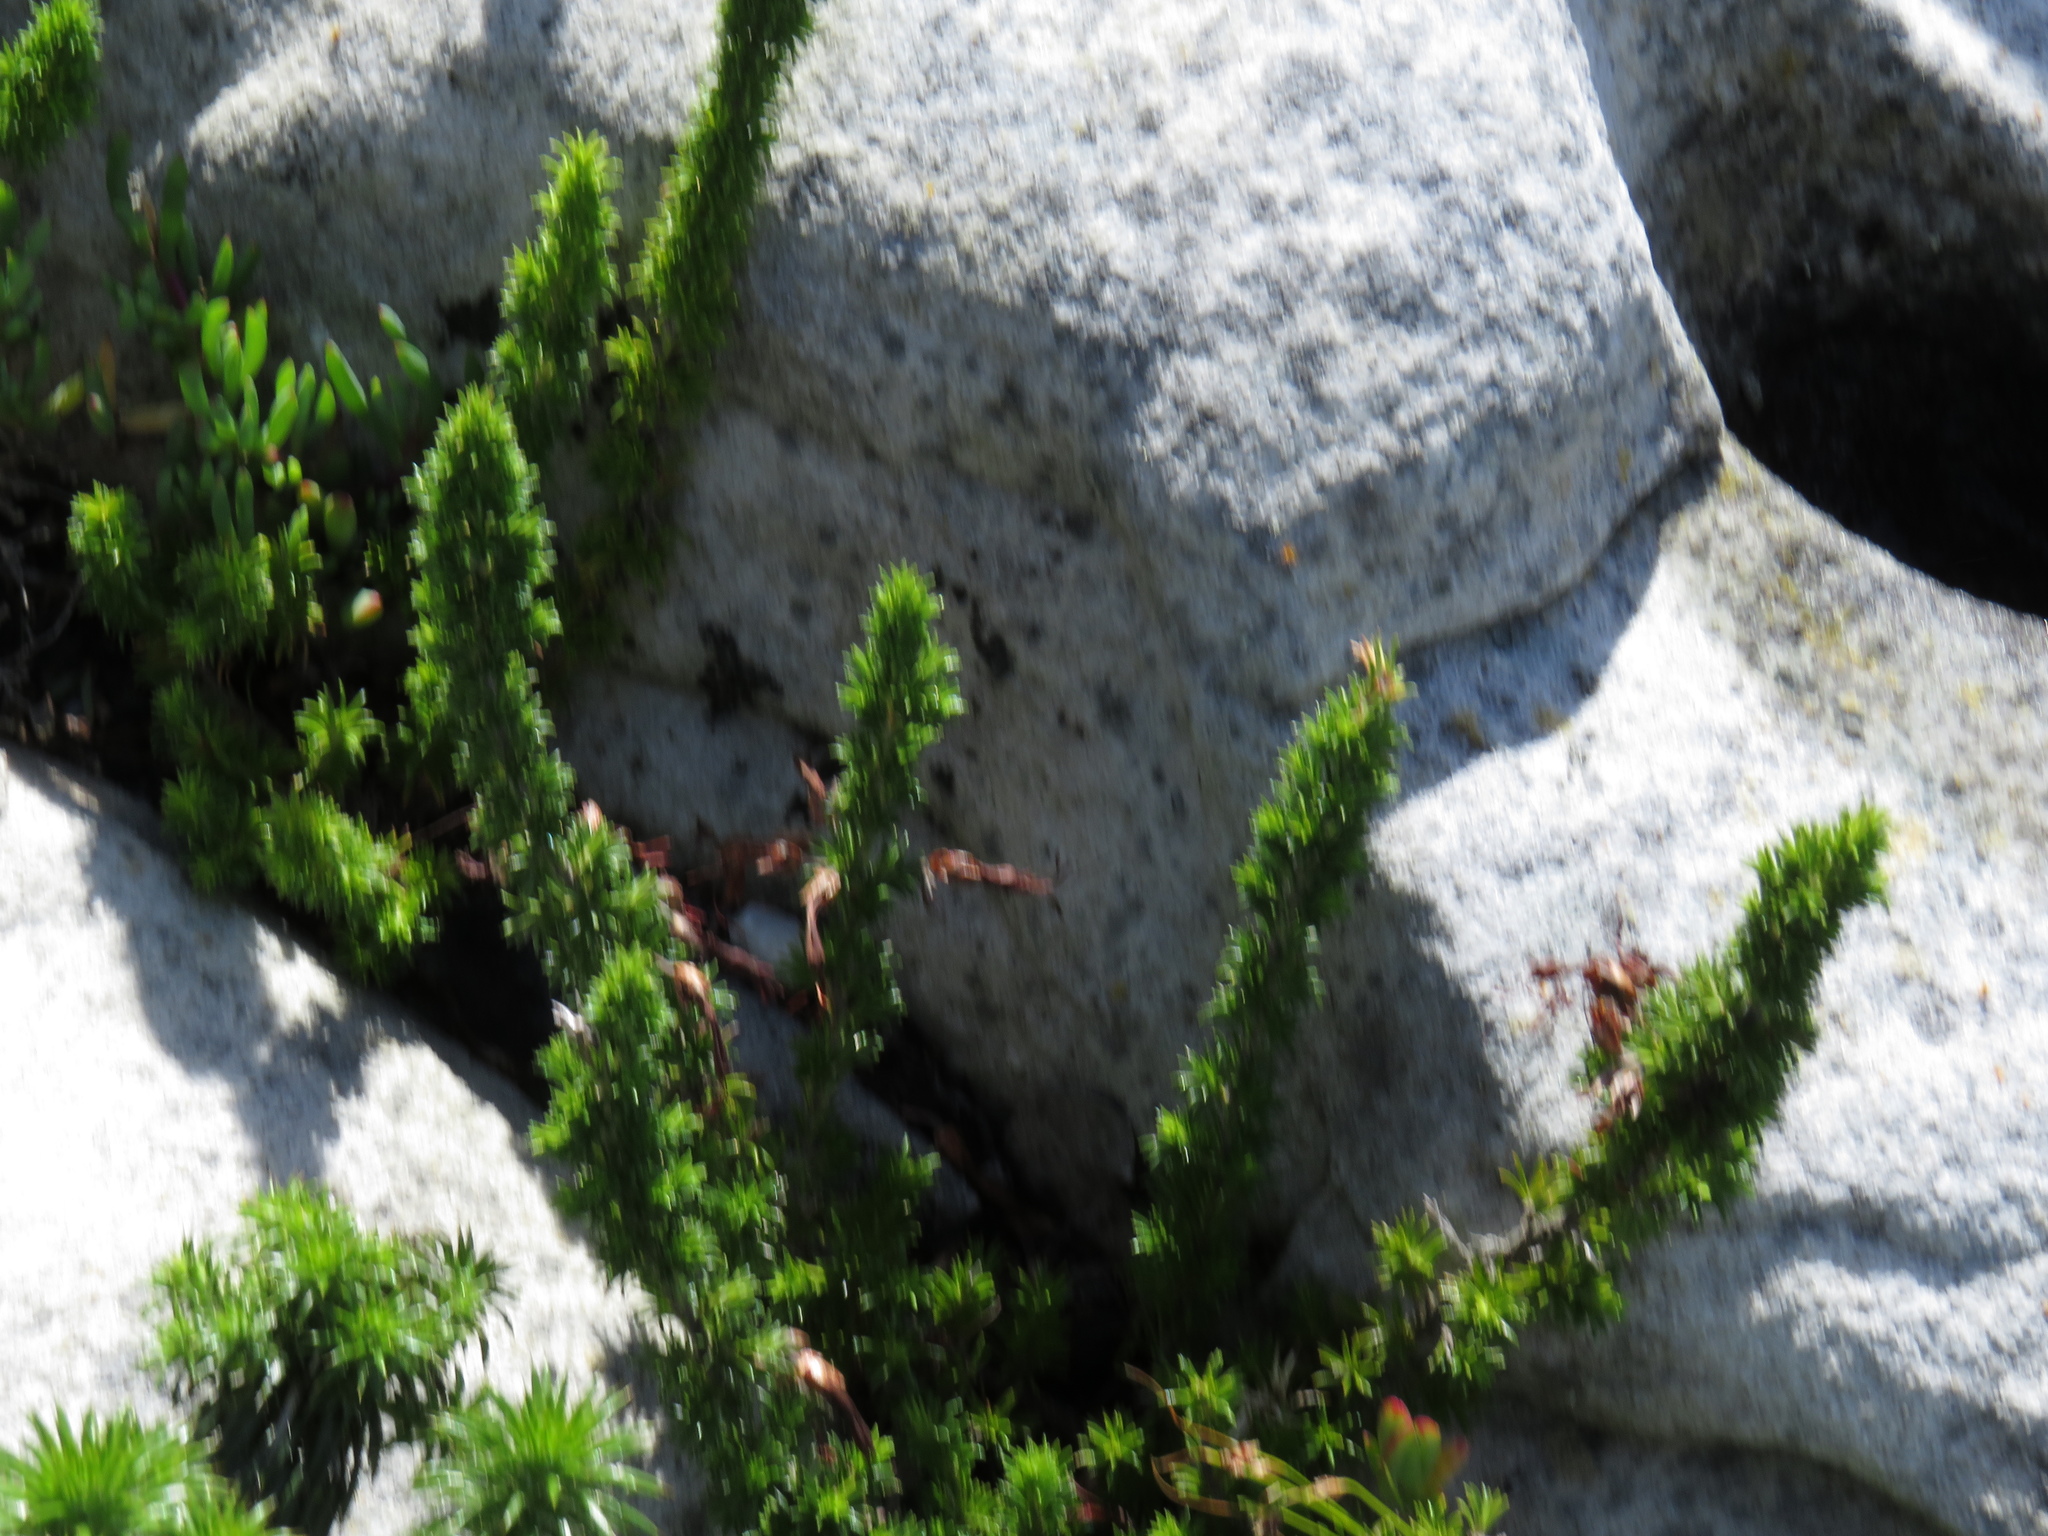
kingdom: Plantae
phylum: Tracheophyta
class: Magnoliopsida
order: Ericales
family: Ericaceae
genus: Erica
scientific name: Erica coccinea
